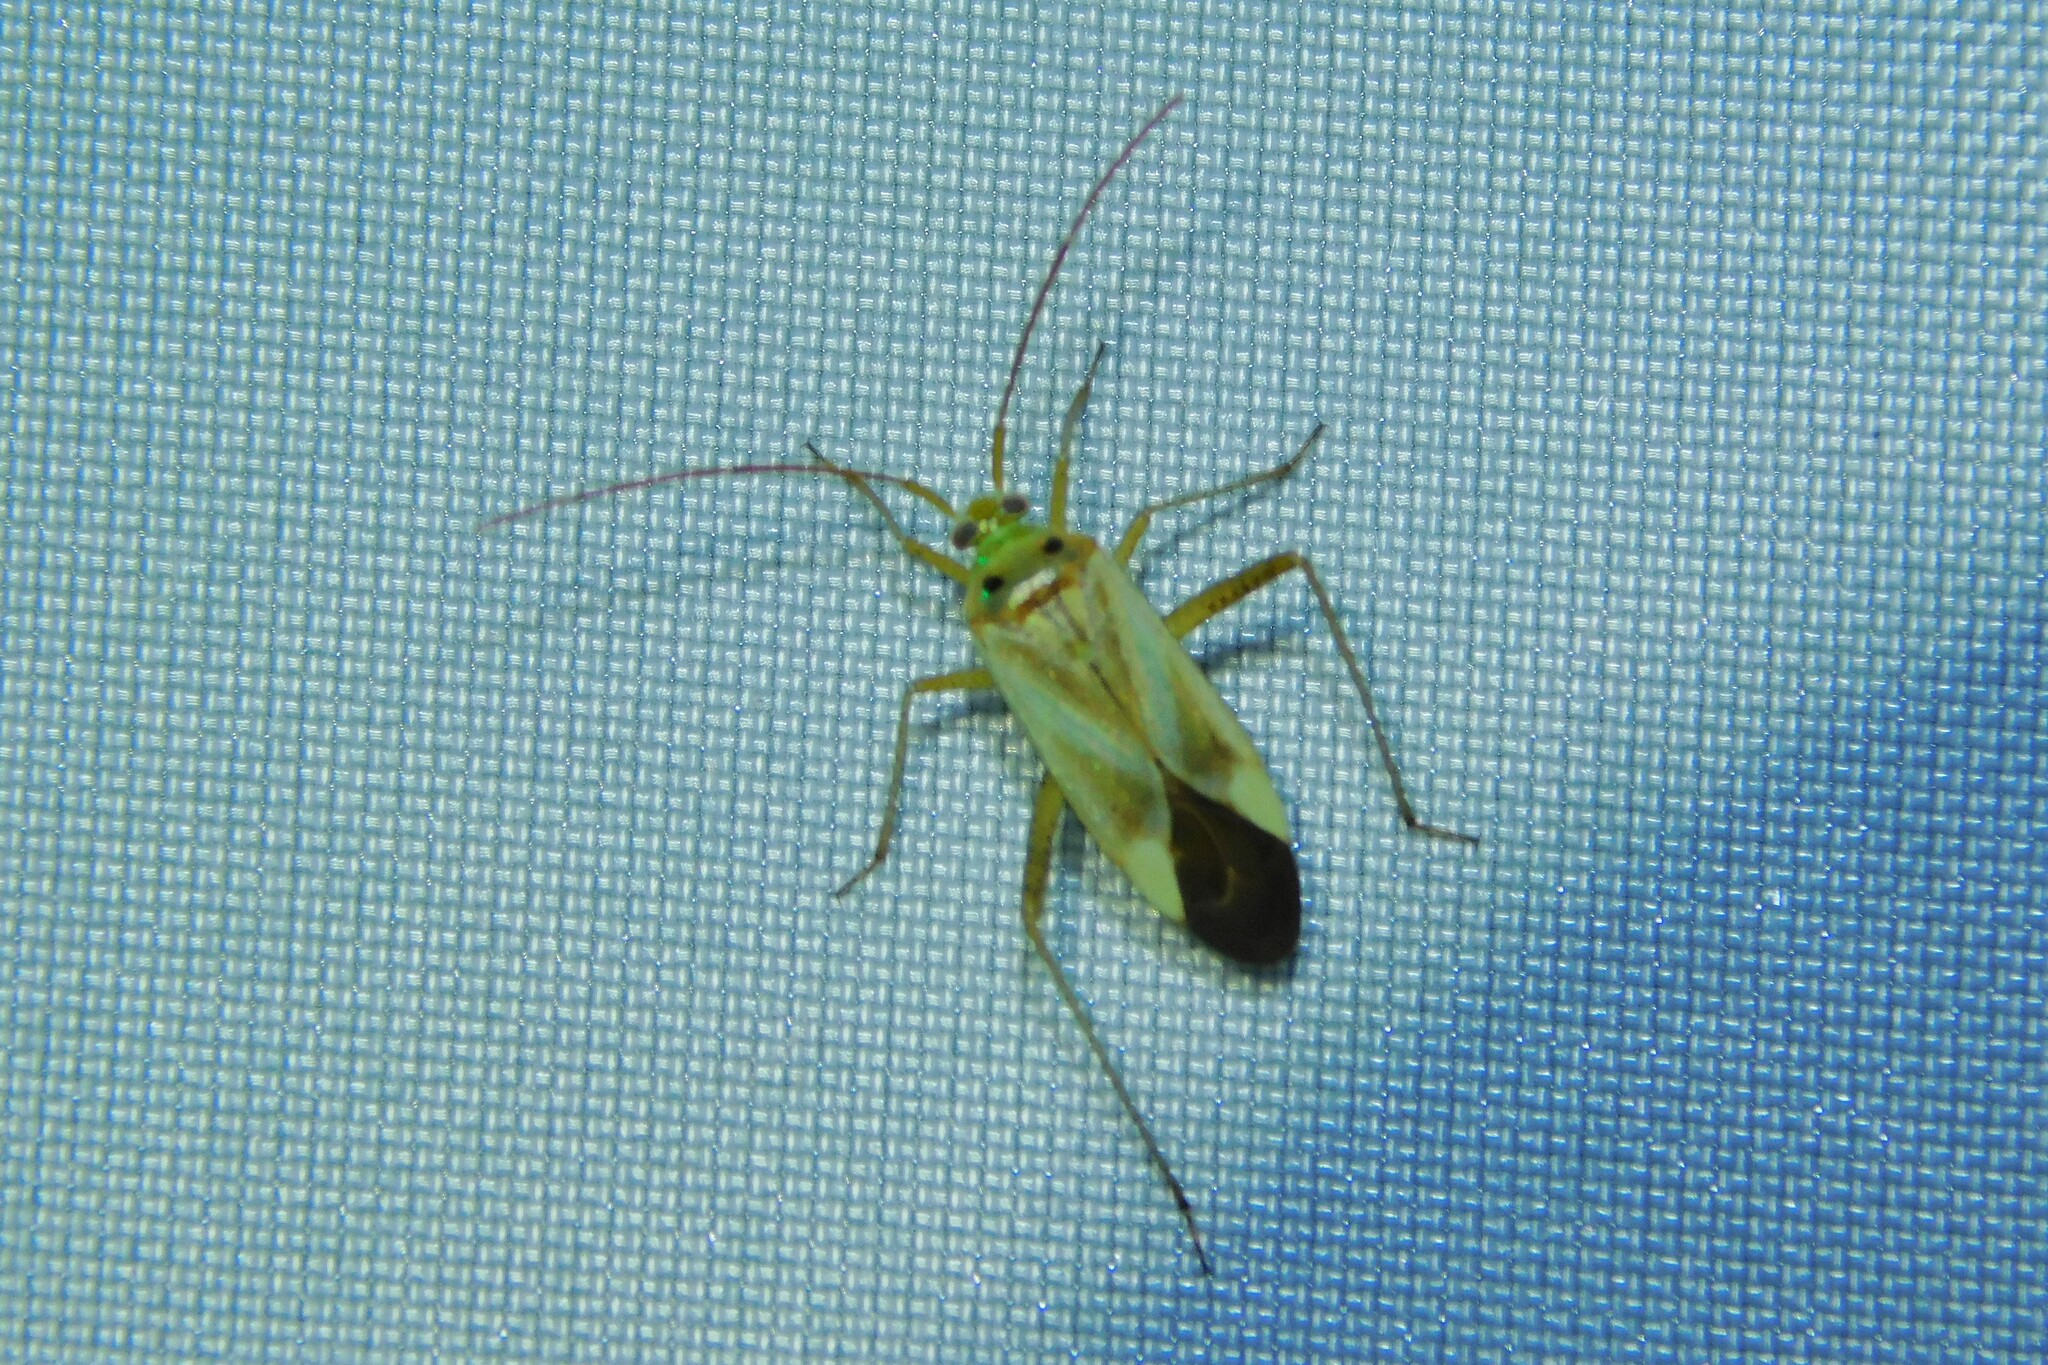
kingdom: Animalia
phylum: Arthropoda
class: Insecta
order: Hemiptera
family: Miridae
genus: Adelphocoris
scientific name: Adelphocoris lineolatus
